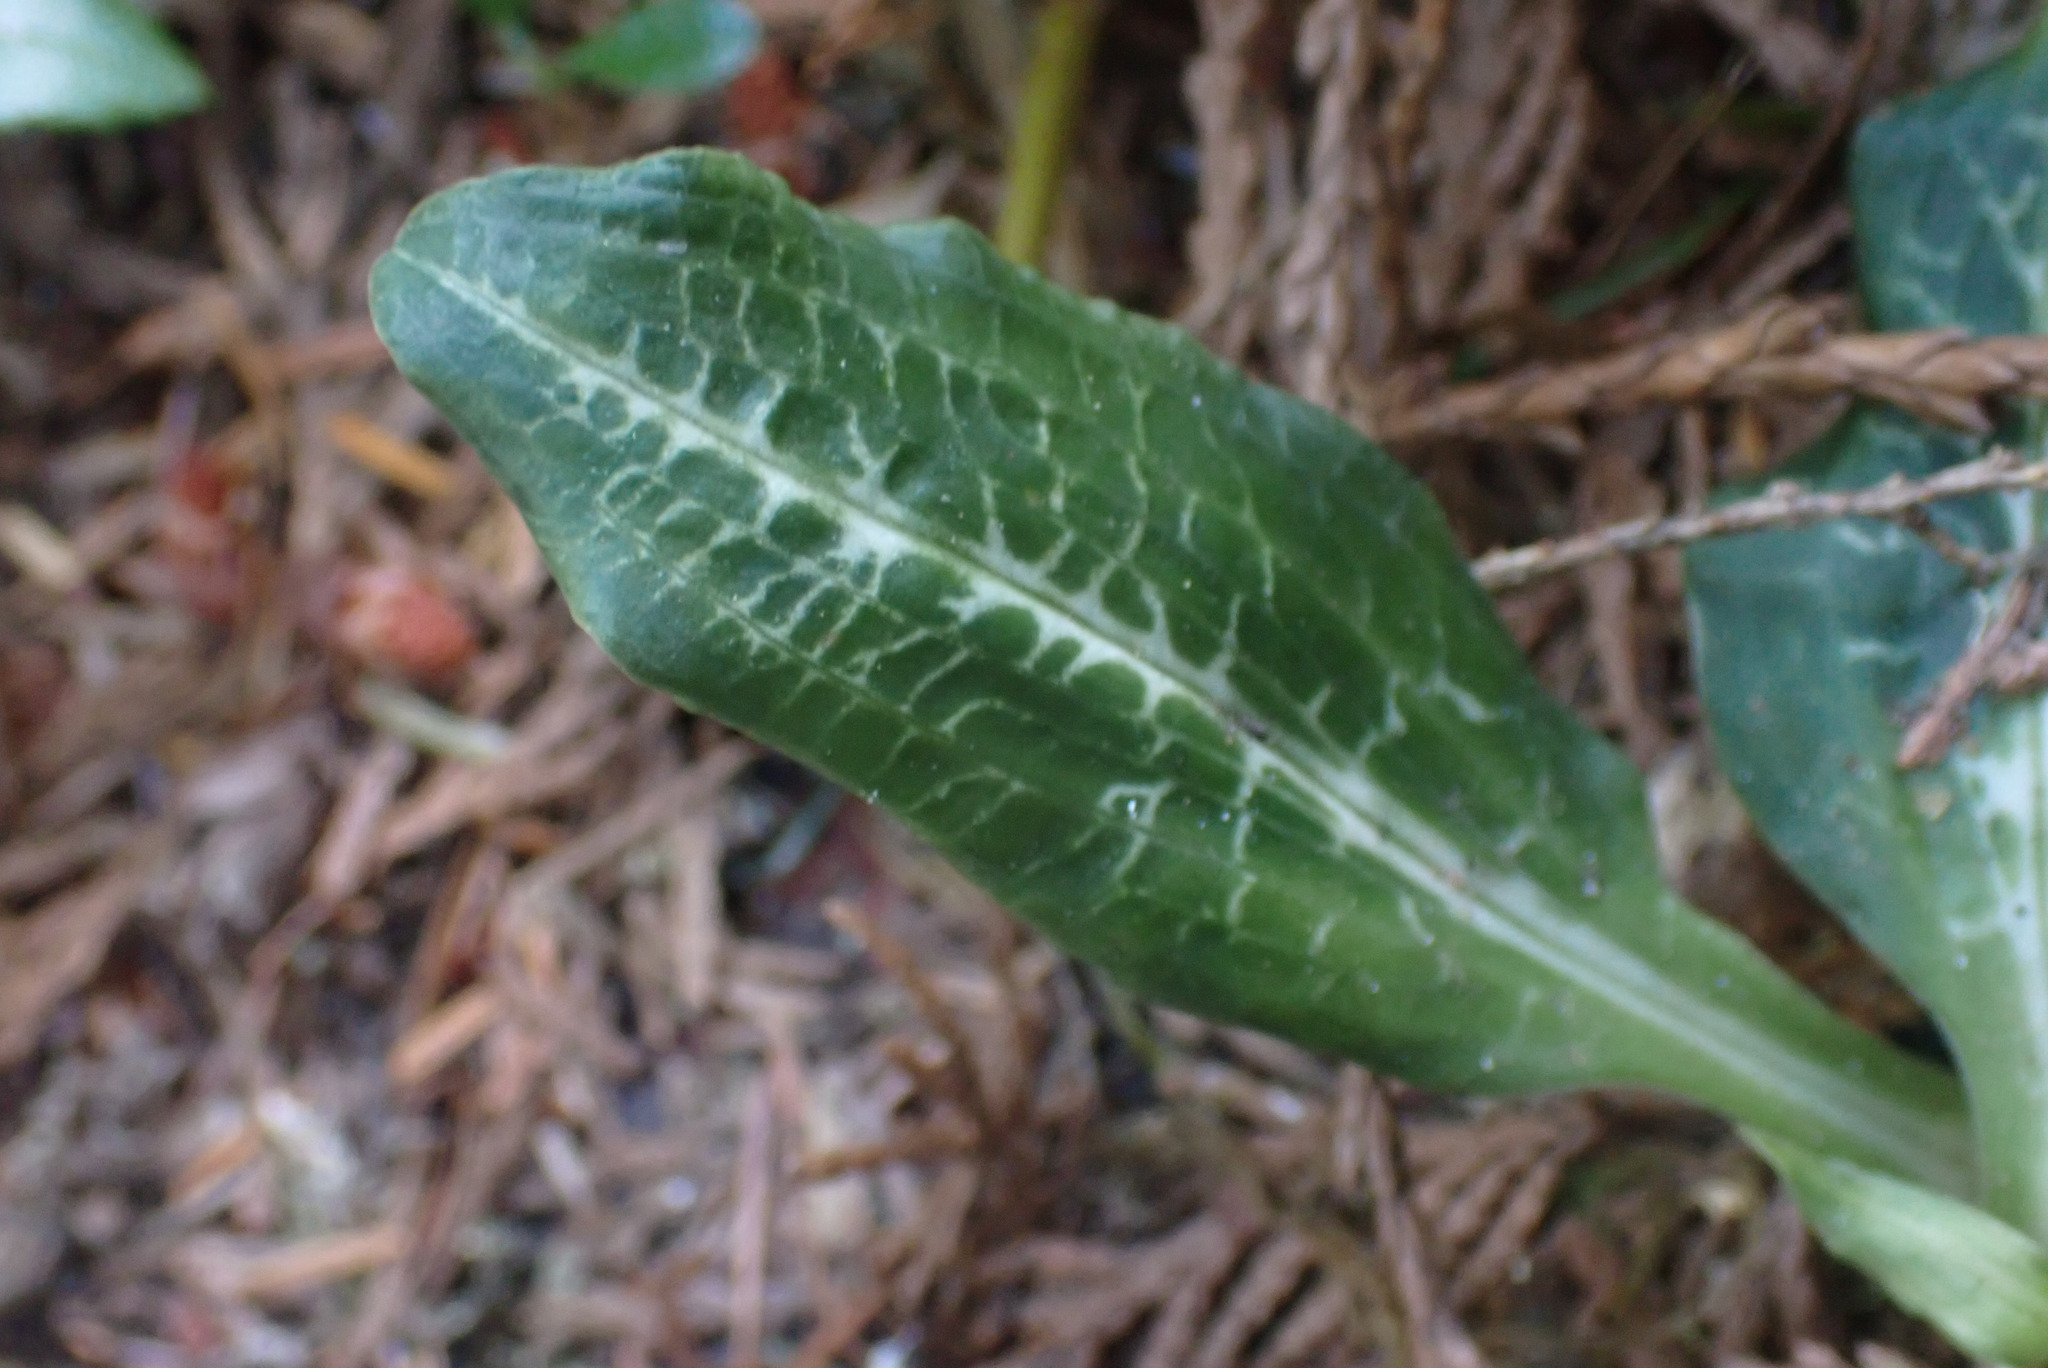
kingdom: Plantae
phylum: Tracheophyta
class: Liliopsida
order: Asparagales
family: Orchidaceae
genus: Goodyera
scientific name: Goodyera oblongifolia
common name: Giant rattlesnake-plantain
